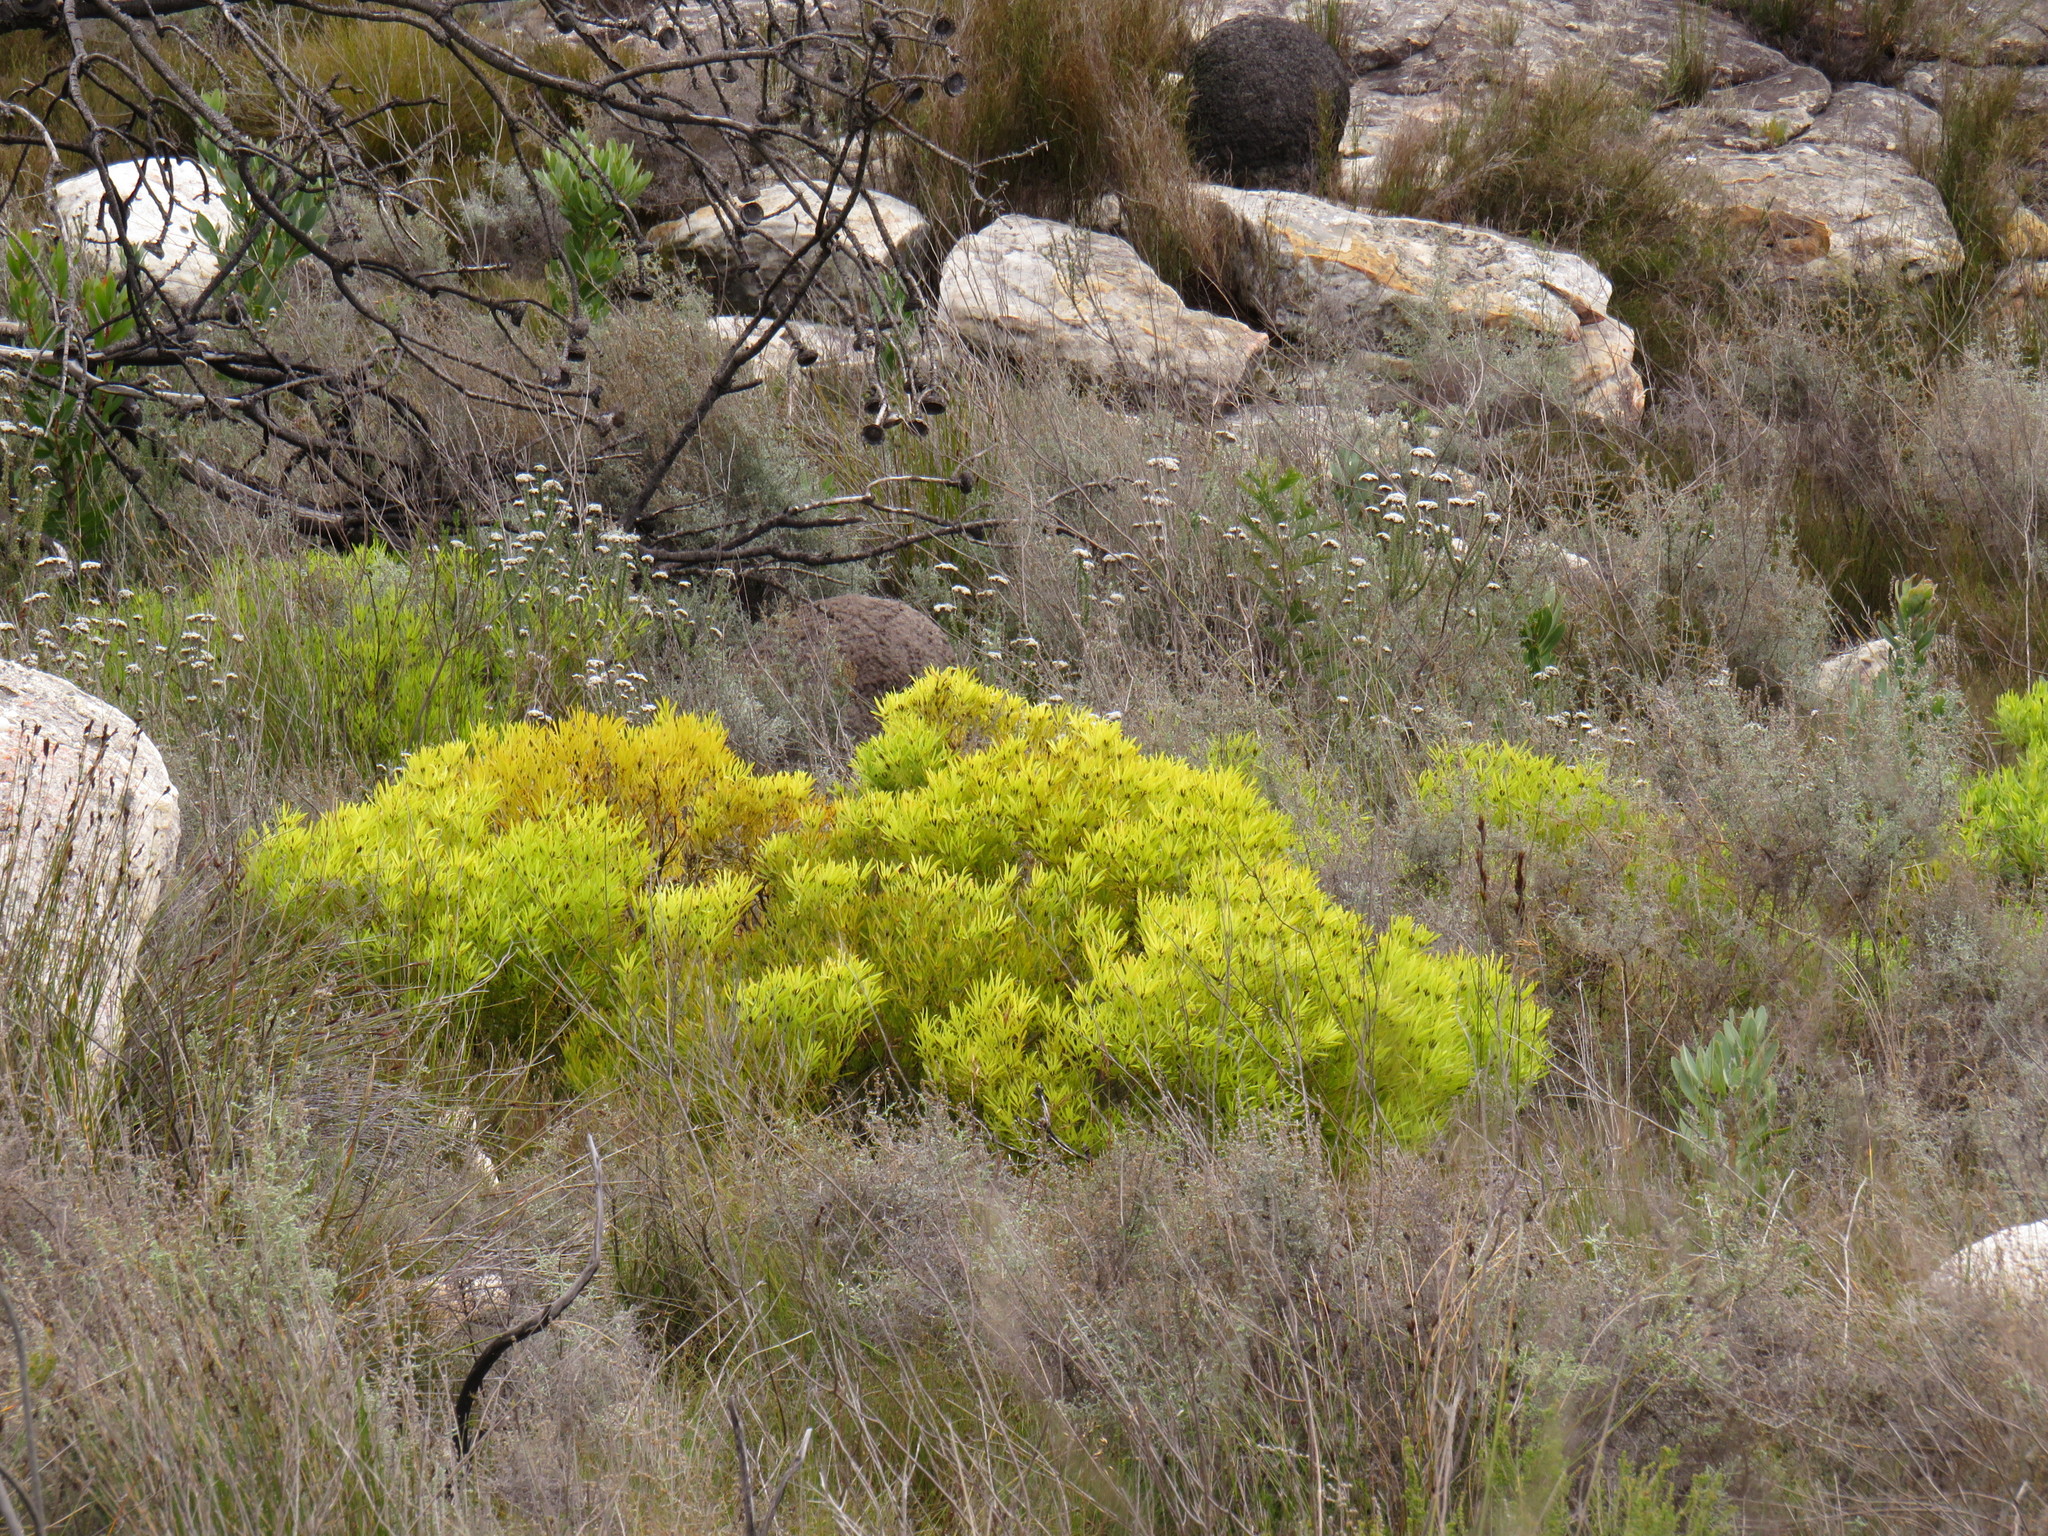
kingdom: Plantae
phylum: Tracheophyta
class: Magnoliopsida
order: Proteales
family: Proteaceae
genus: Leucadendron
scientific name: Leucadendron salignum
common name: Common sunshine conebush
